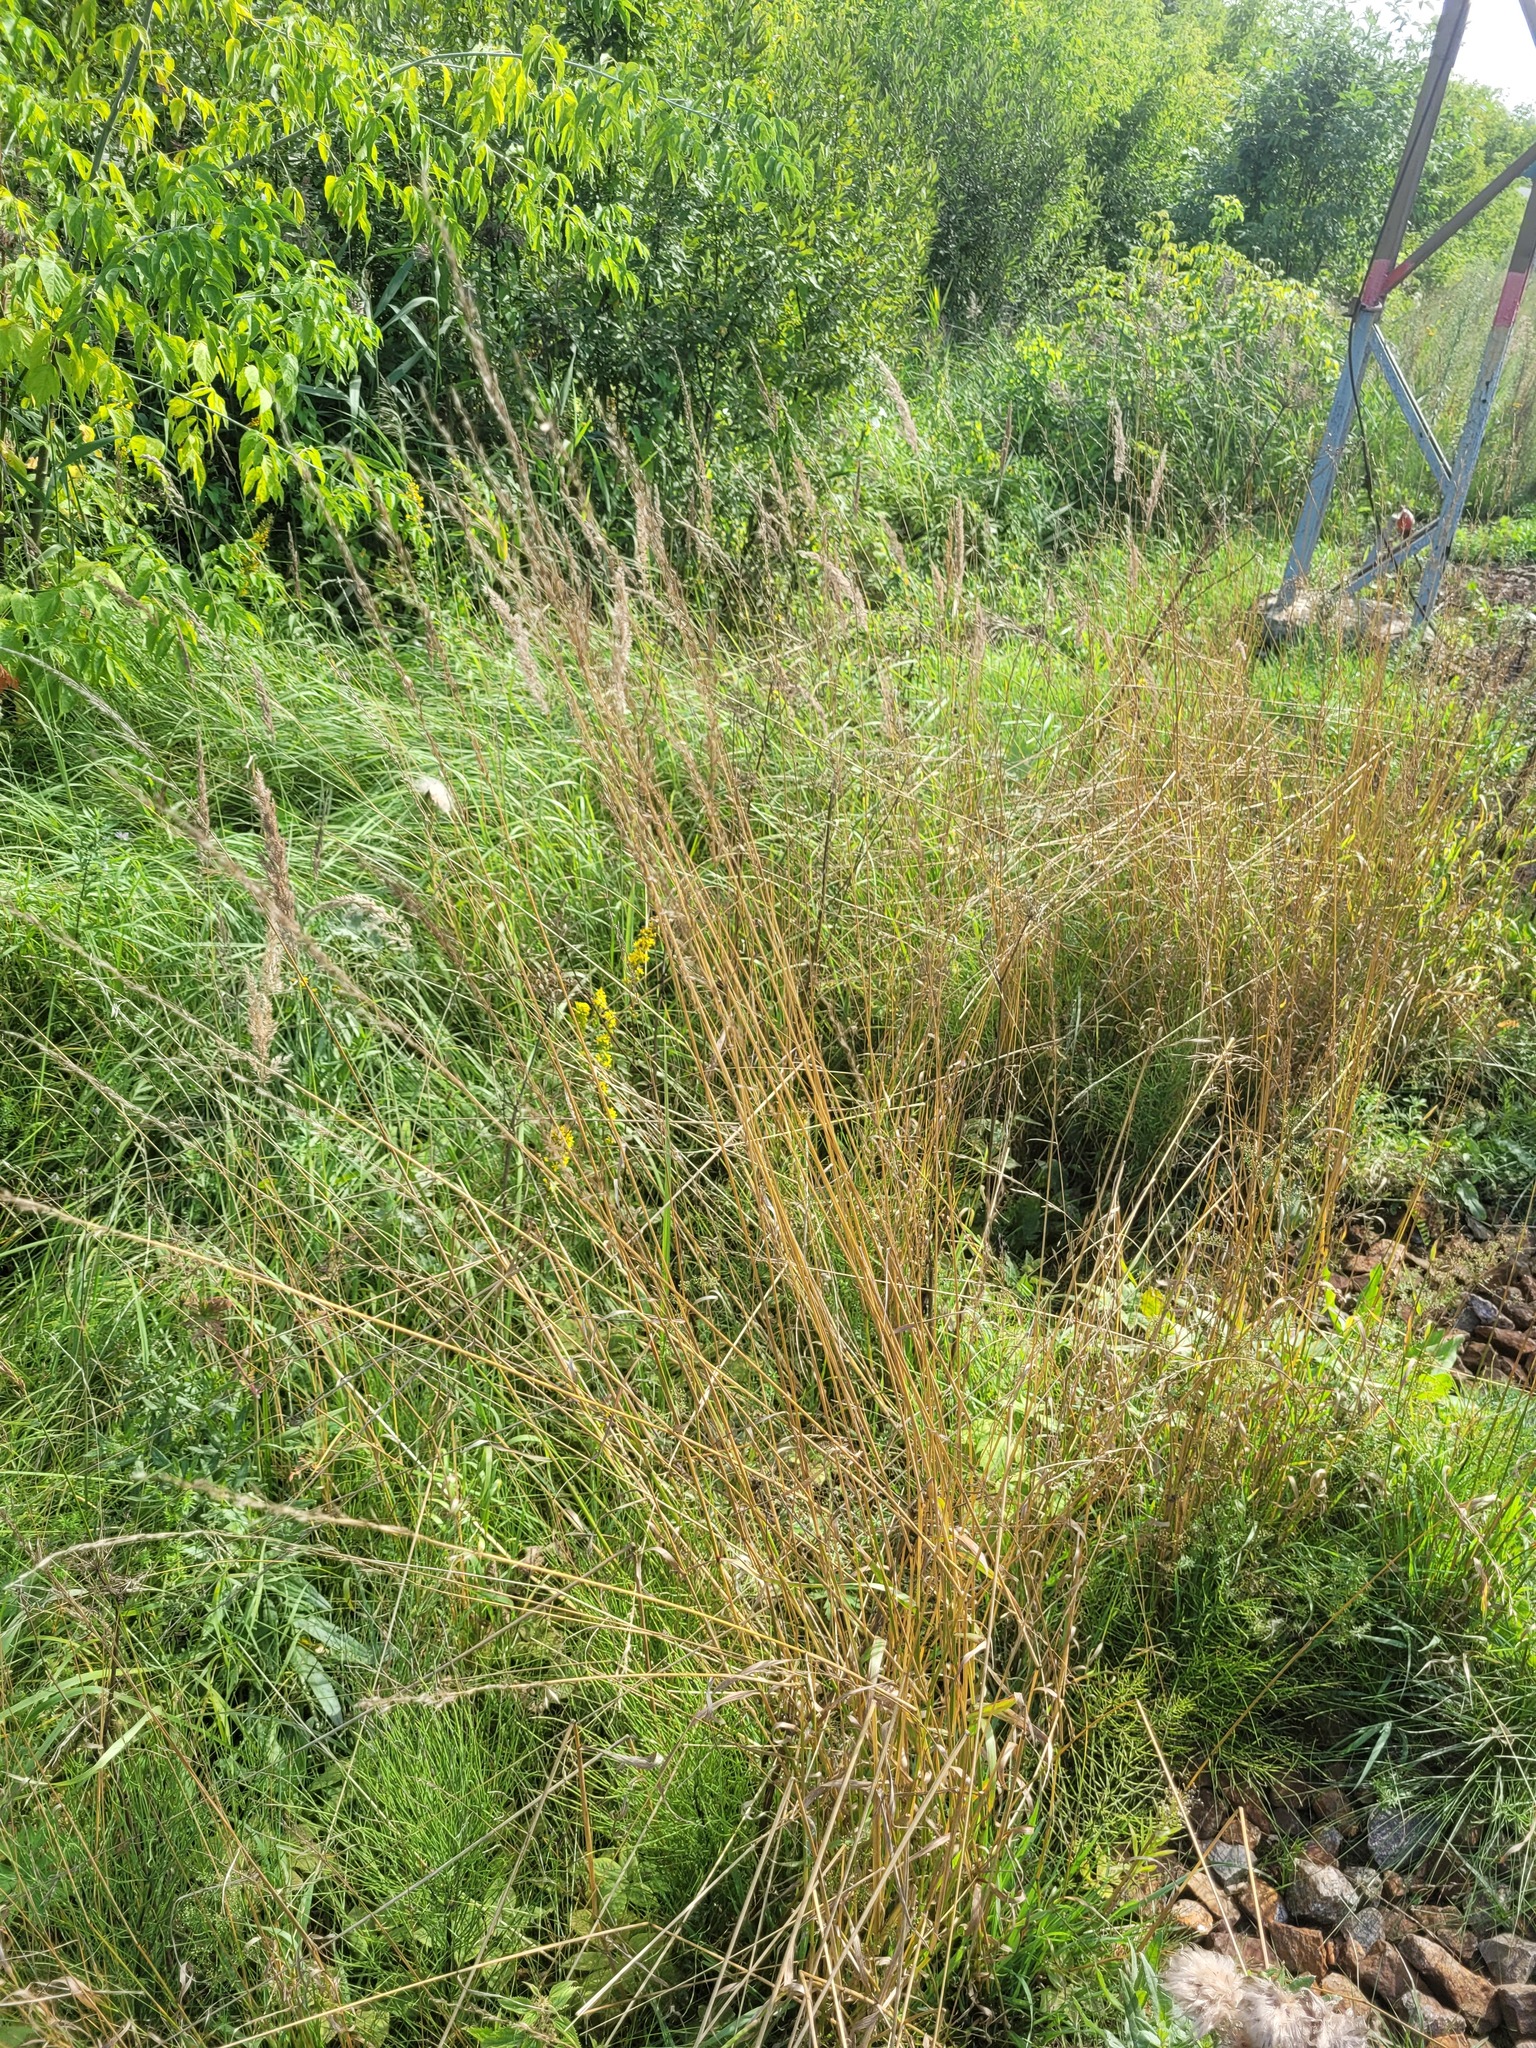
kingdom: Plantae
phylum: Tracheophyta
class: Liliopsida
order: Poales
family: Poaceae
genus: Arrhenatherum
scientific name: Arrhenatherum elatius
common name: Tall oatgrass
